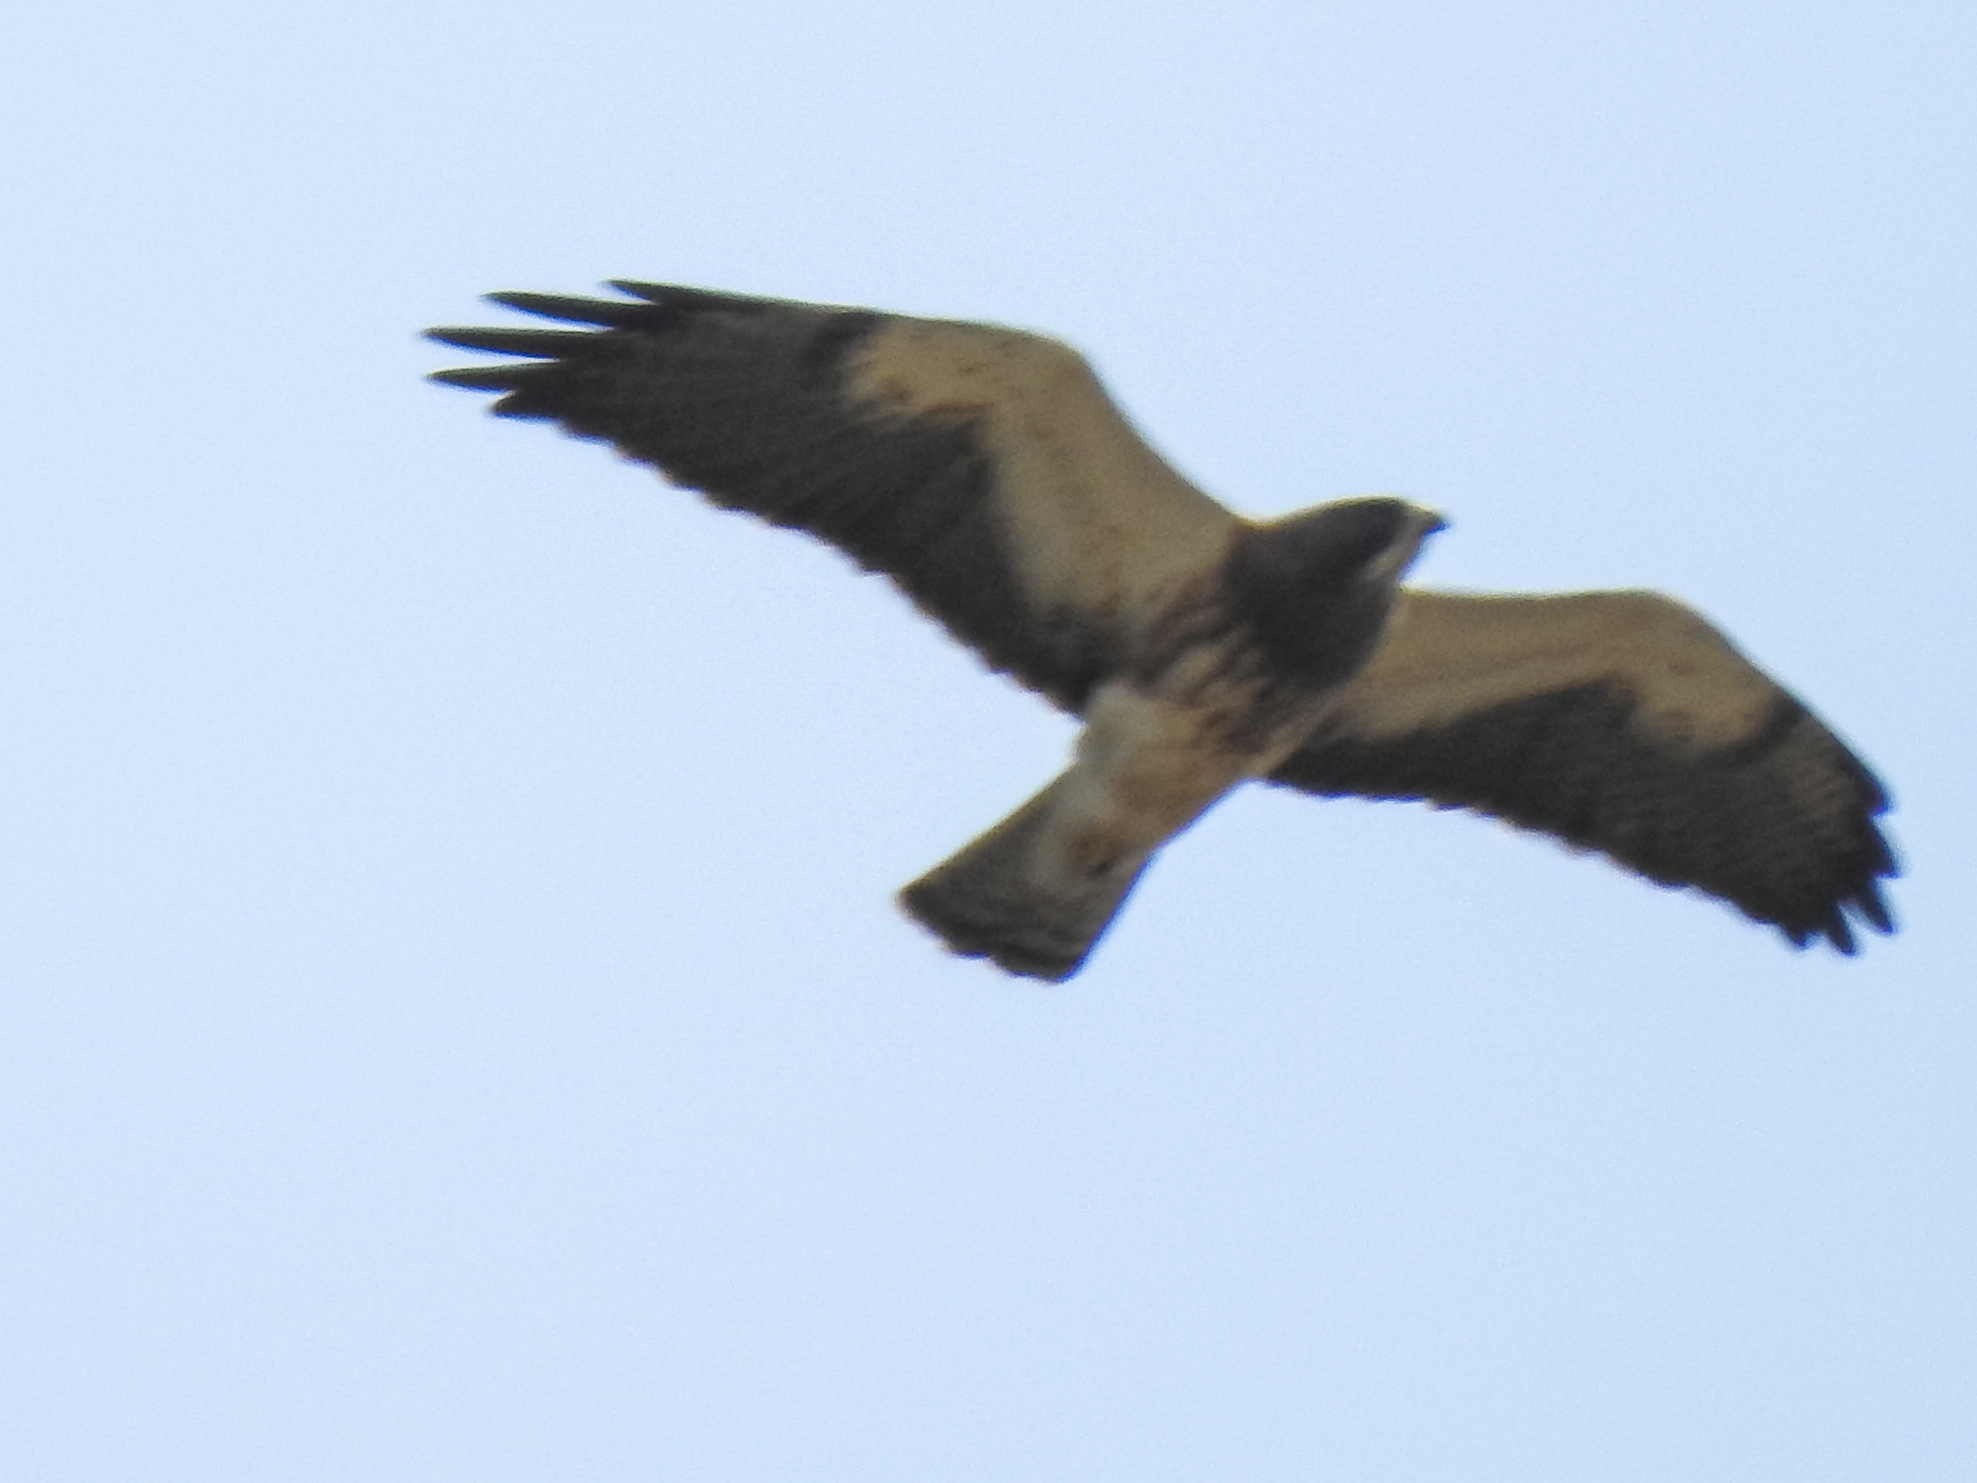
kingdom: Animalia
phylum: Chordata
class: Aves
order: Accipitriformes
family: Accipitridae
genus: Buteo
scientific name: Buteo swainsoni
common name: Swainson's hawk
